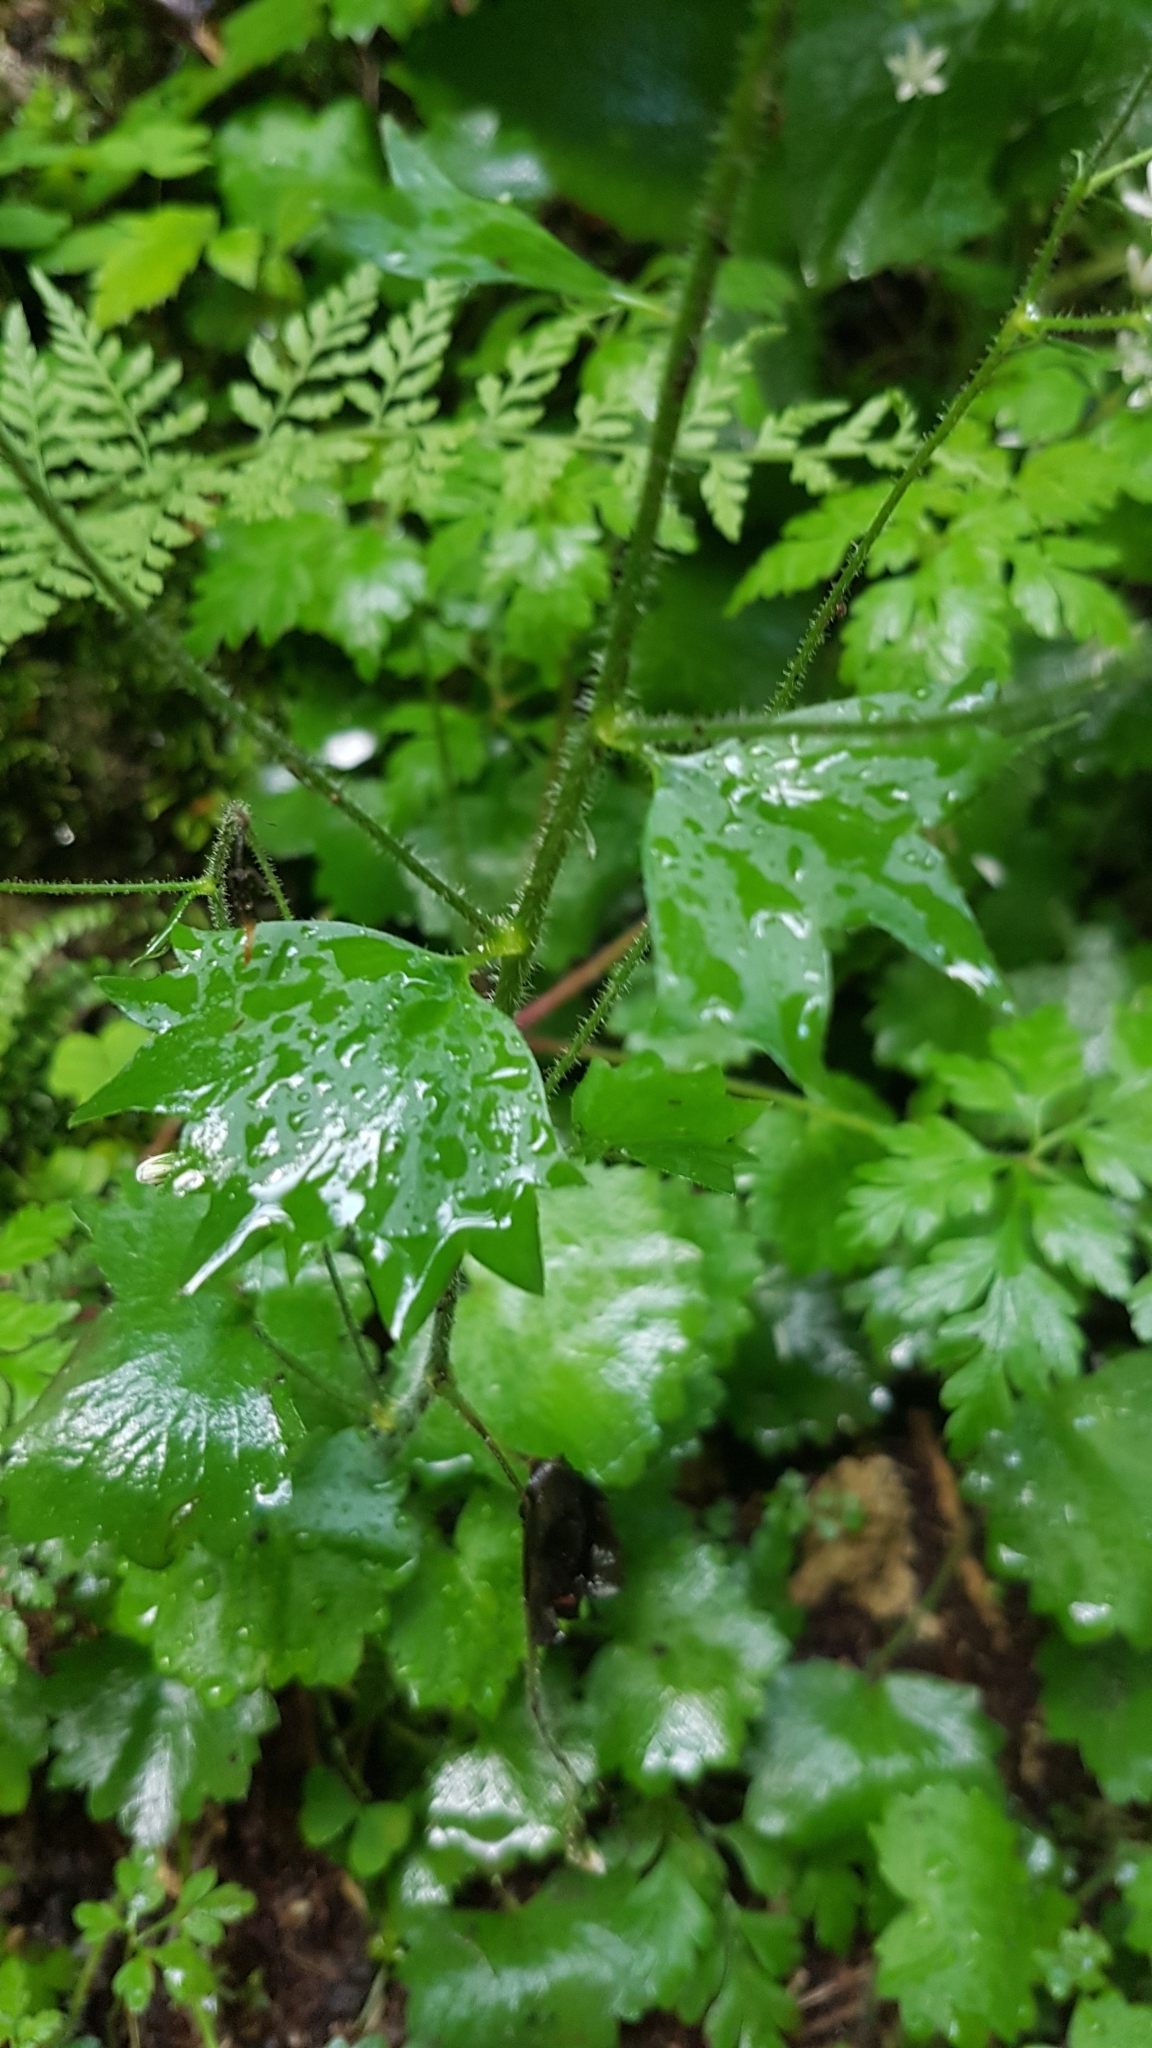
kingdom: Plantae
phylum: Tracheophyta
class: Magnoliopsida
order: Saxifragales
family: Saxifragaceae
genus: Saxifraga
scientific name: Saxifraga rotundifolia
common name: Round-leaved saxifrage
